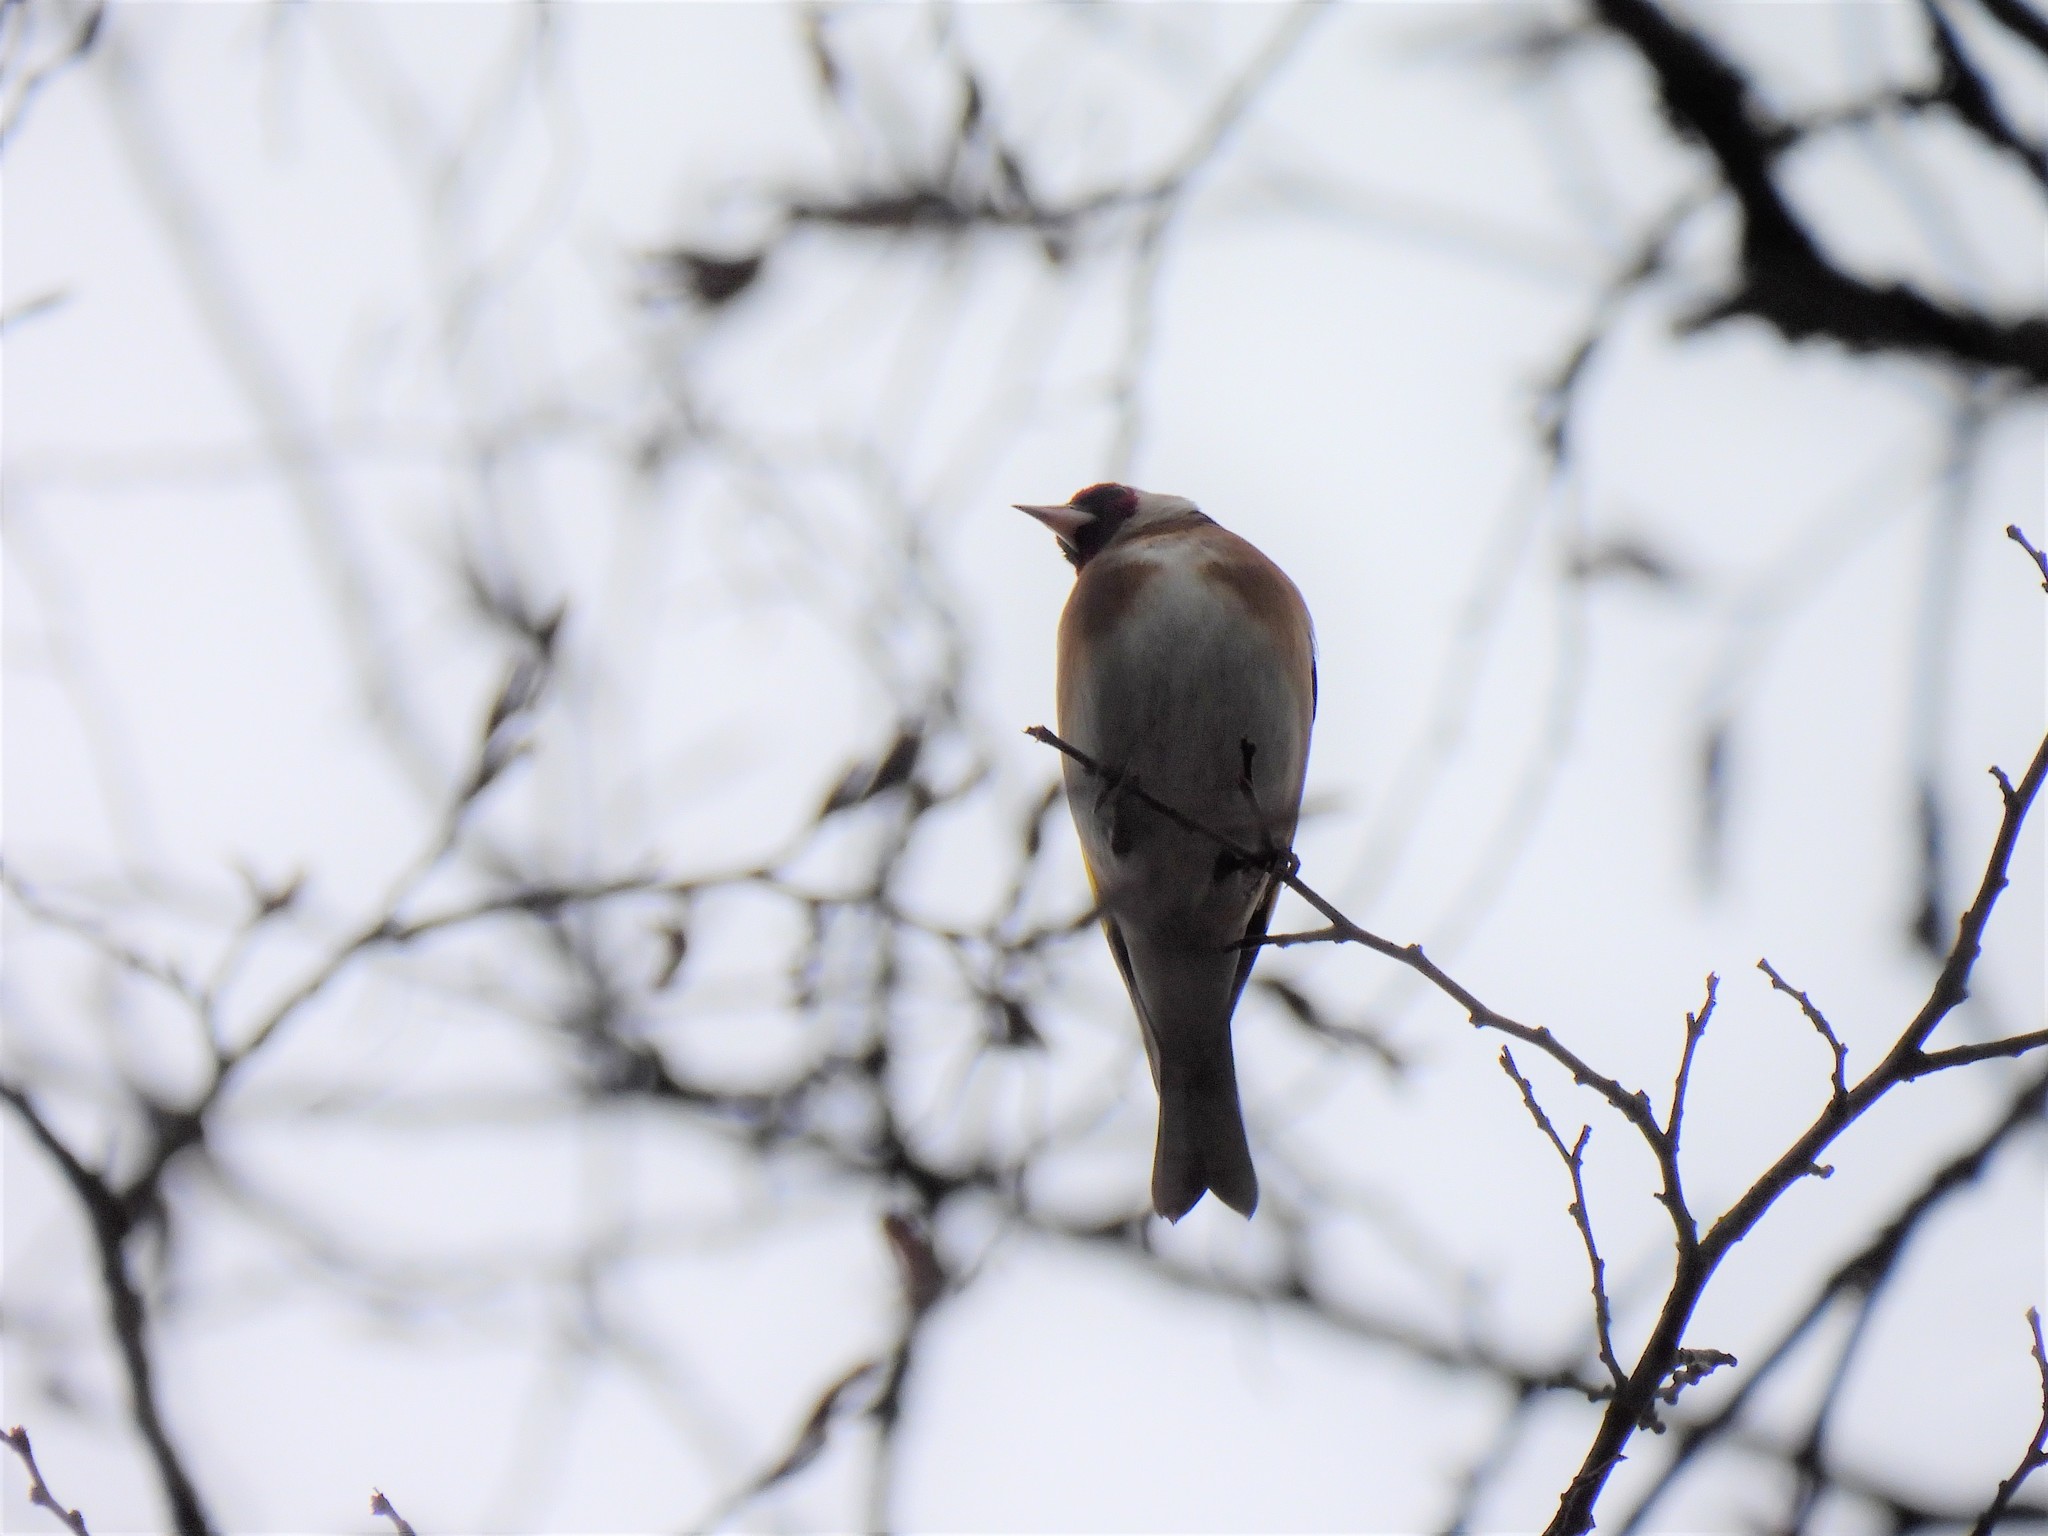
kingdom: Animalia
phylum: Chordata
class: Aves
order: Passeriformes
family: Fringillidae
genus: Carduelis
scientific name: Carduelis carduelis
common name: European goldfinch
